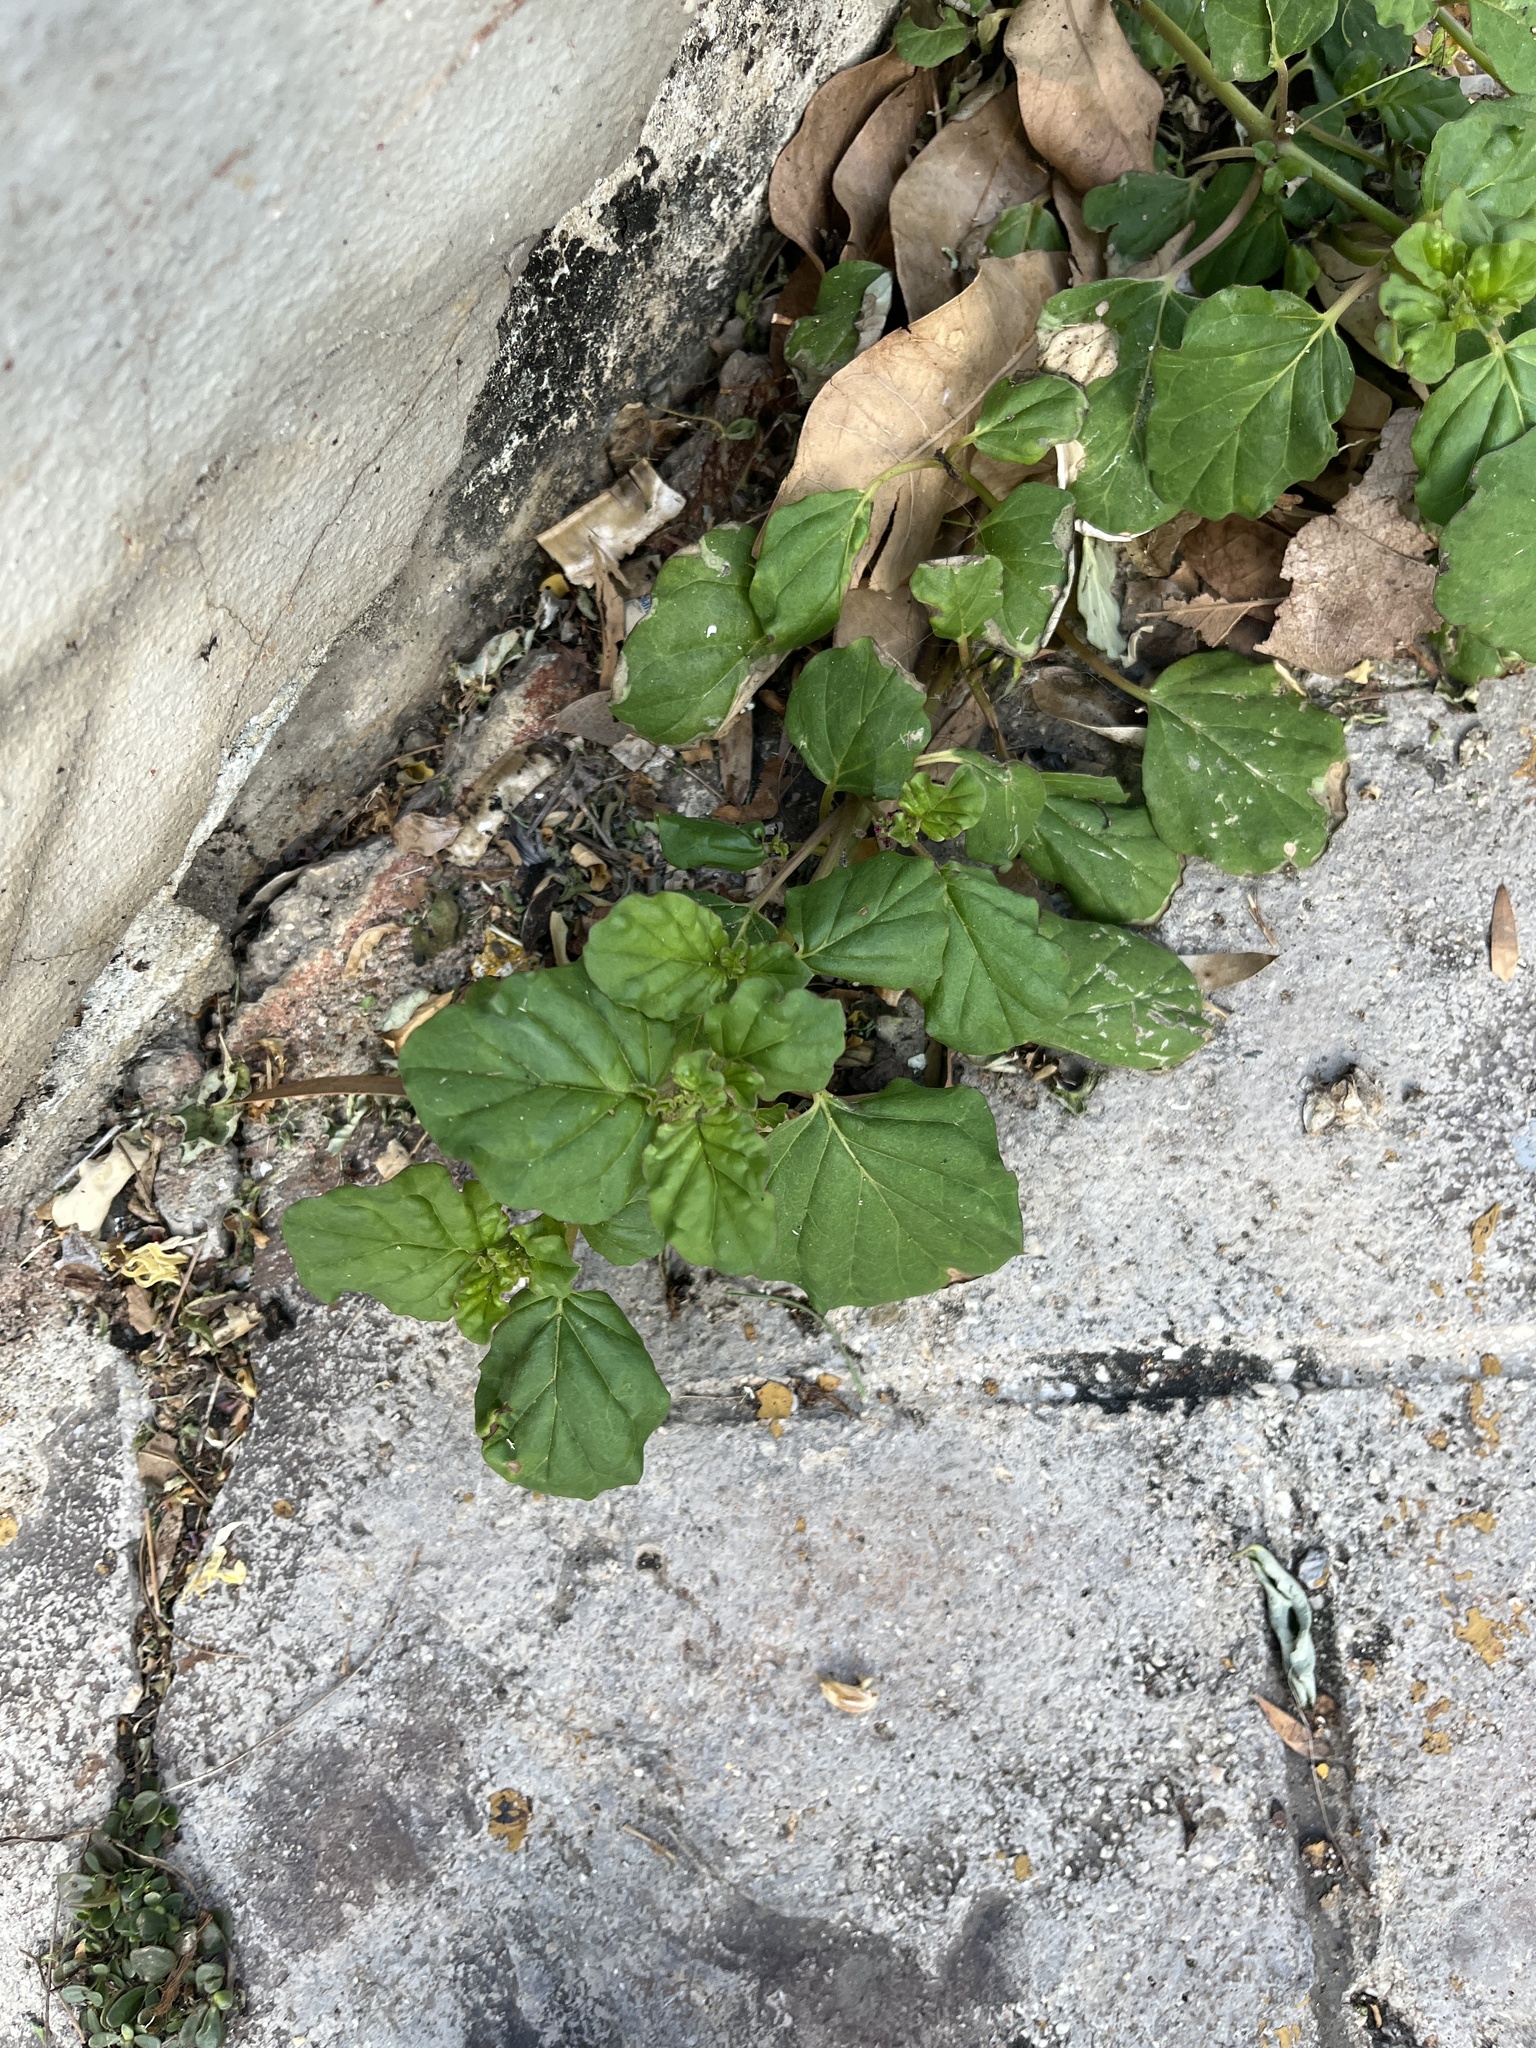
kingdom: Plantae
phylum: Tracheophyta
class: Magnoliopsida
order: Caryophyllales
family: Nyctaginaceae
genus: Boerhavia
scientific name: Boerhavia coccinea
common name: Scarlet spiderling
